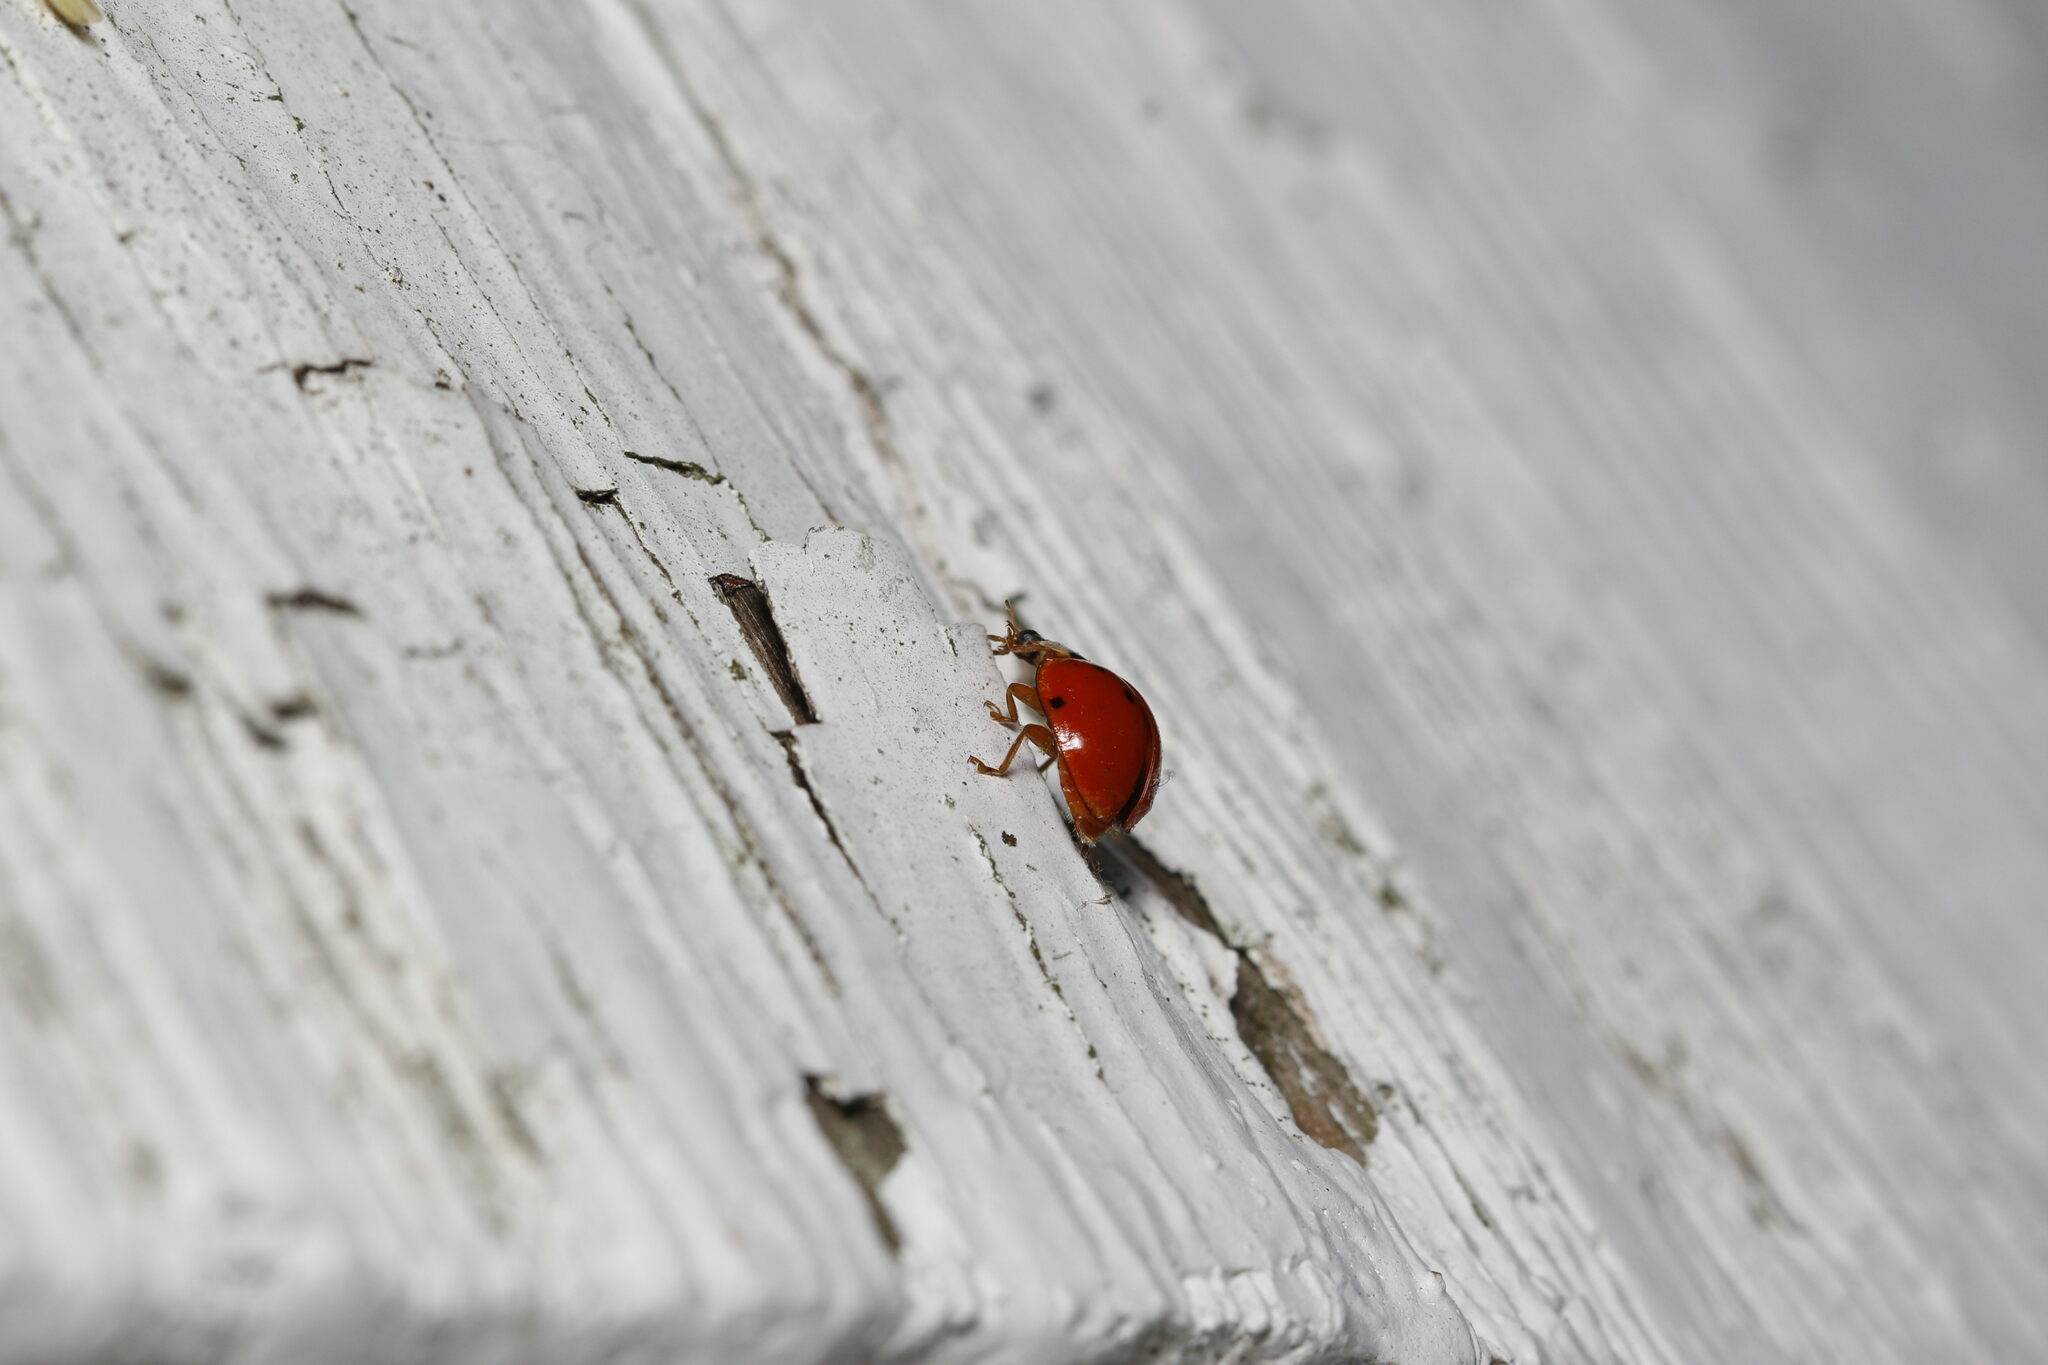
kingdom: Animalia
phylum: Arthropoda
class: Insecta
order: Coleoptera
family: Coccinellidae
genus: Harmonia
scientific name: Harmonia axyridis
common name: Harlequin ladybird
